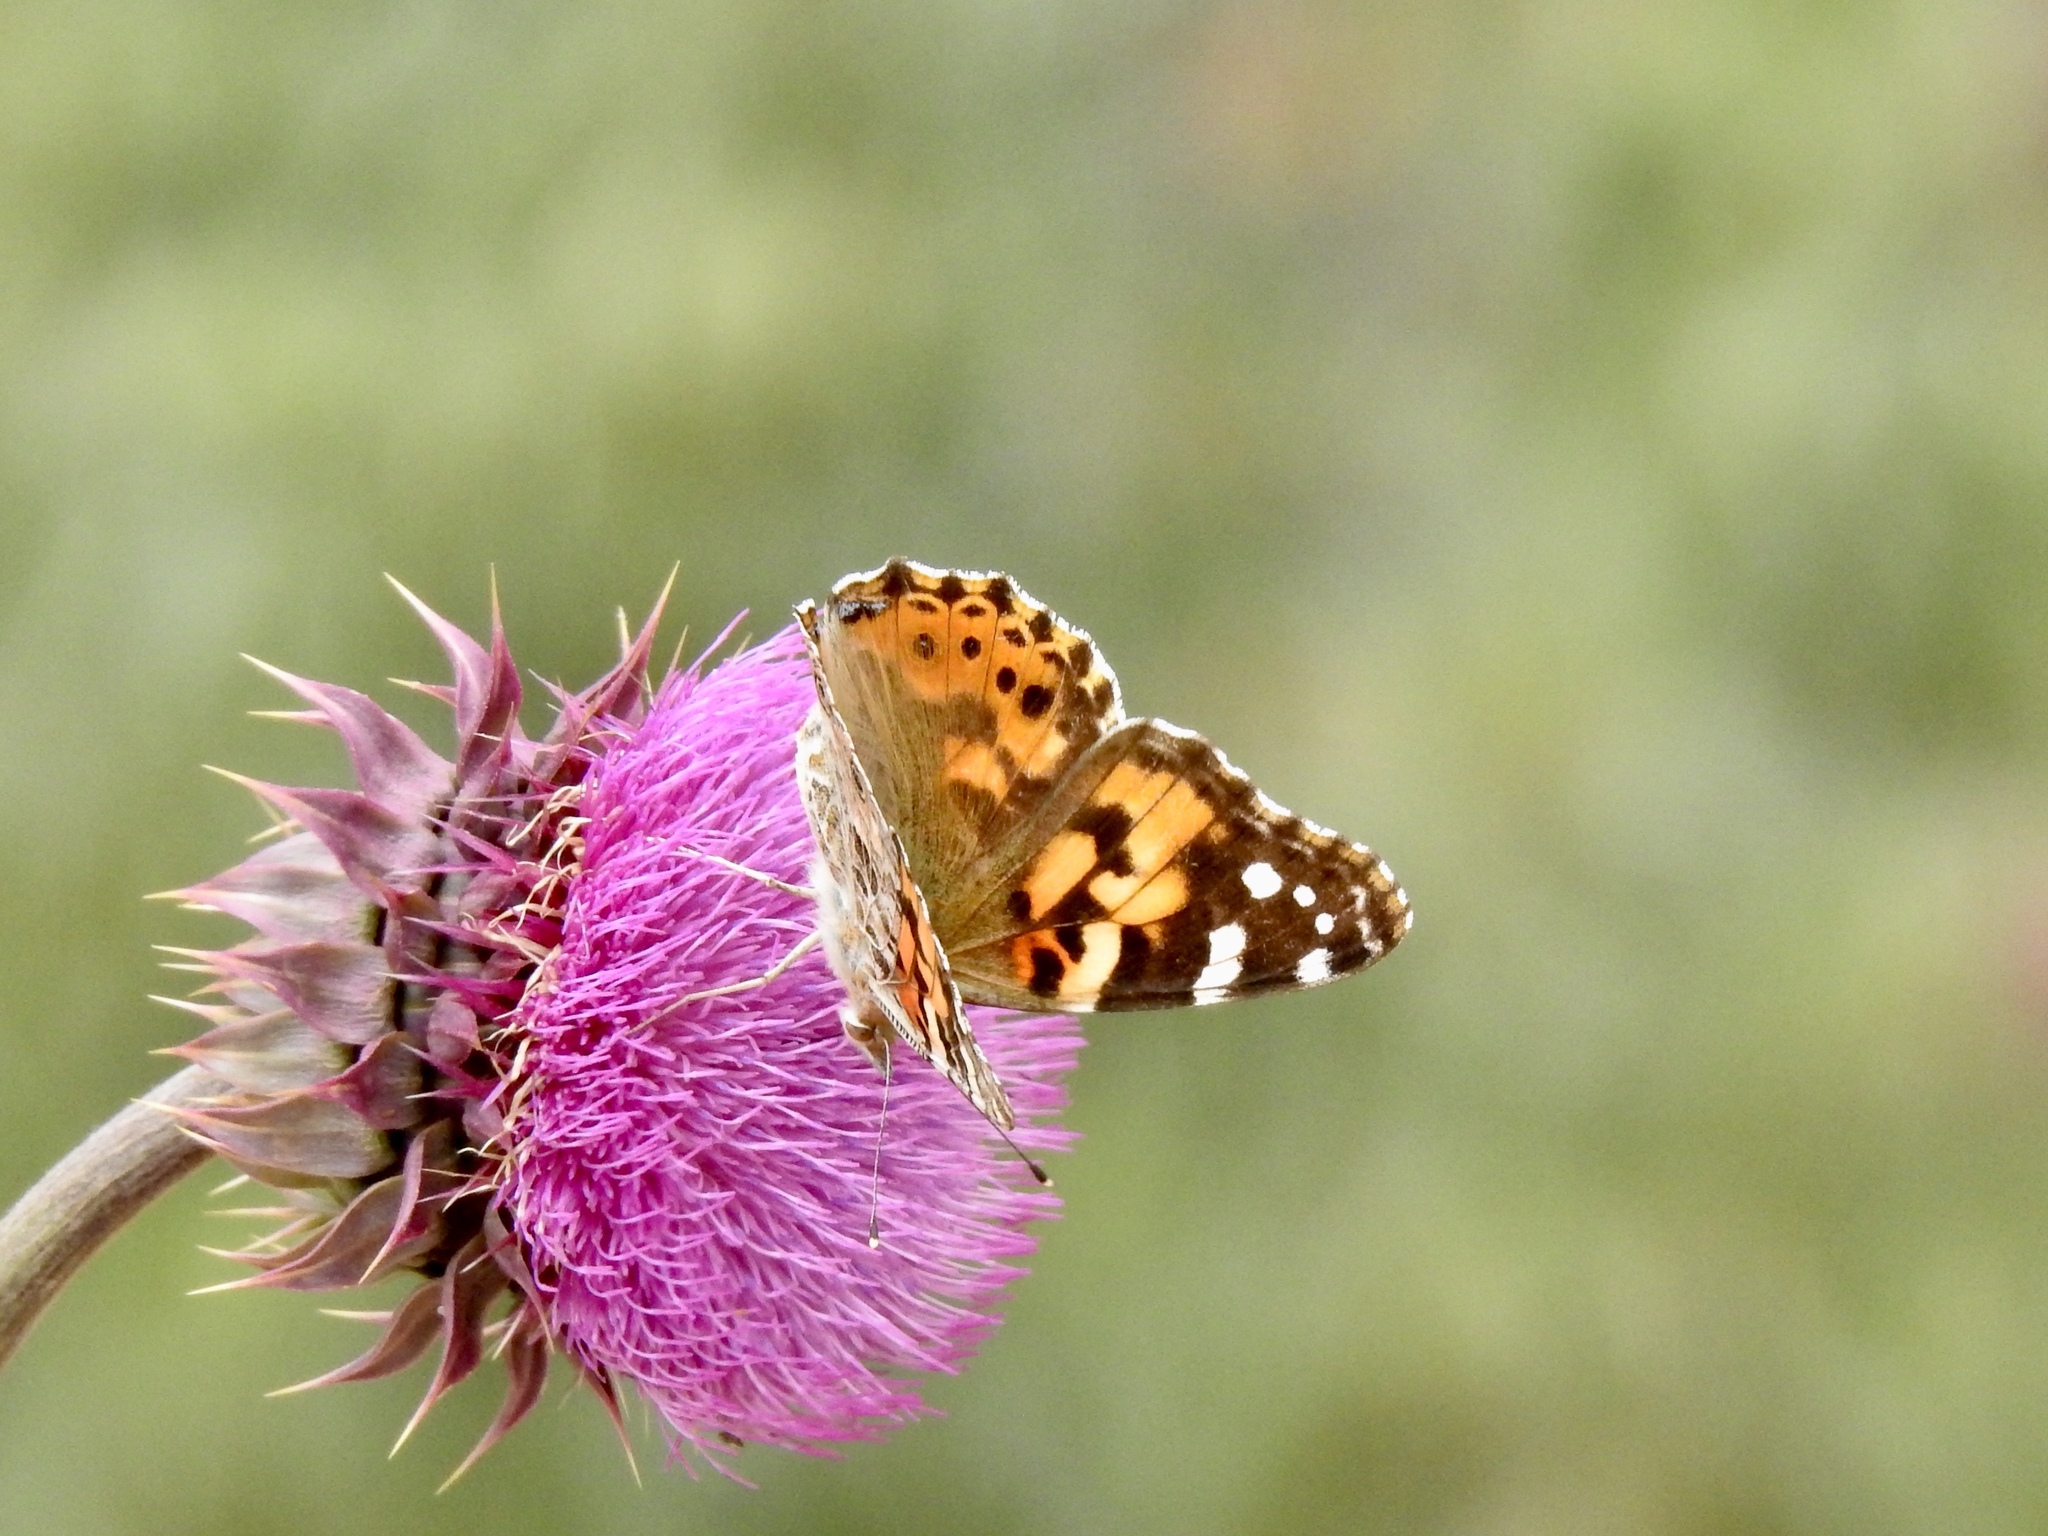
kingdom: Animalia
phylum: Arthropoda
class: Insecta
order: Lepidoptera
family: Nymphalidae
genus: Vanessa
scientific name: Vanessa cardui
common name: Painted lady
